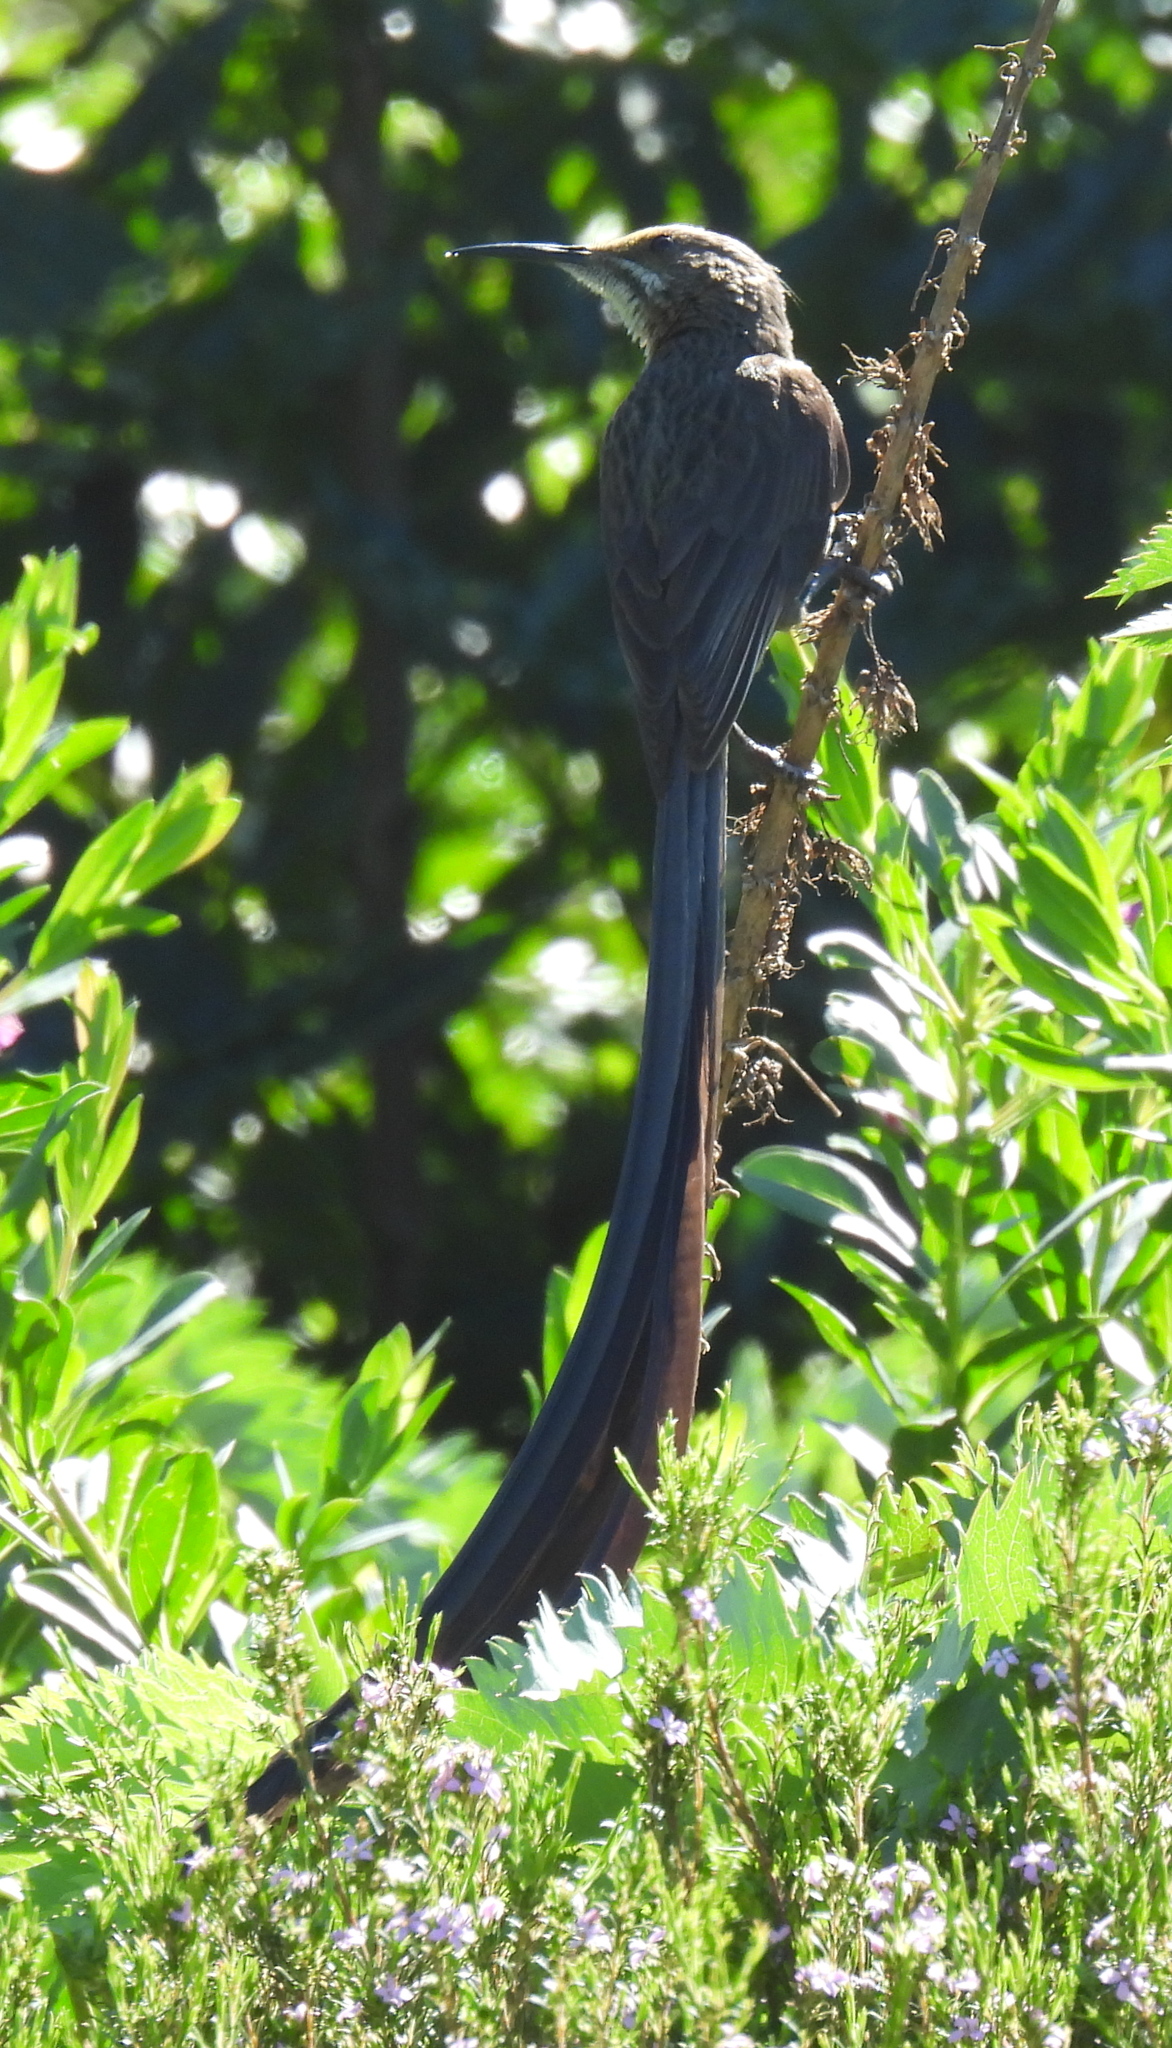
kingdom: Animalia
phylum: Chordata
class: Aves
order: Passeriformes
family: Promeropidae
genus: Promerops
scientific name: Promerops cafer
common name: Cape sugarbird
